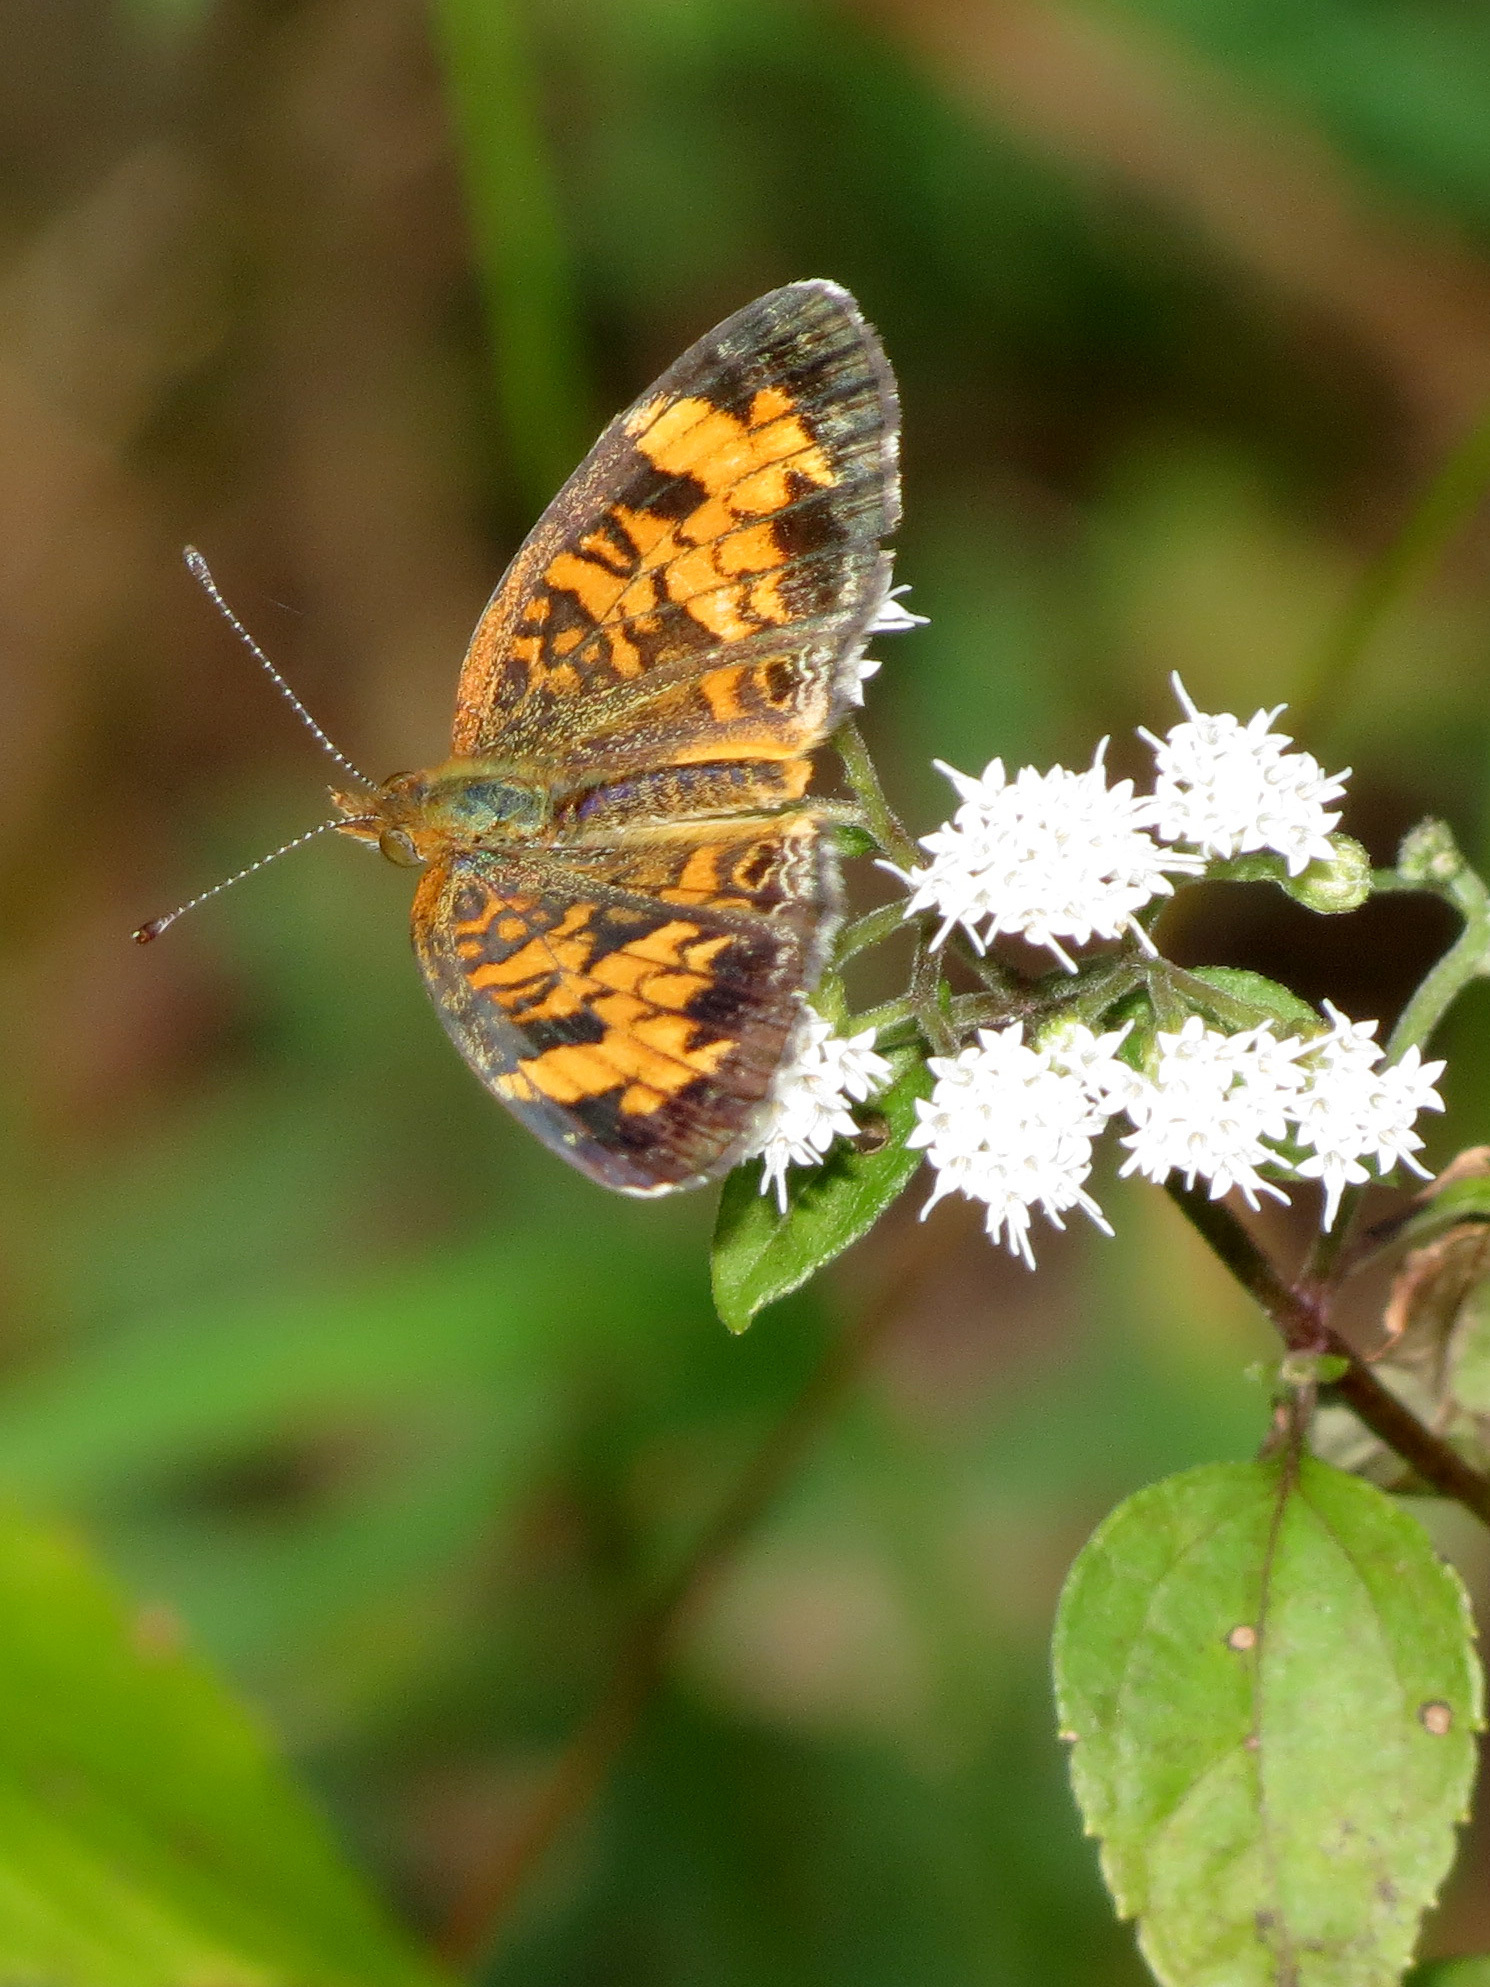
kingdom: Animalia
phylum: Arthropoda
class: Insecta
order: Lepidoptera
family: Nymphalidae
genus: Phyciodes
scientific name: Phyciodes tharos
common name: Pearl crescent
